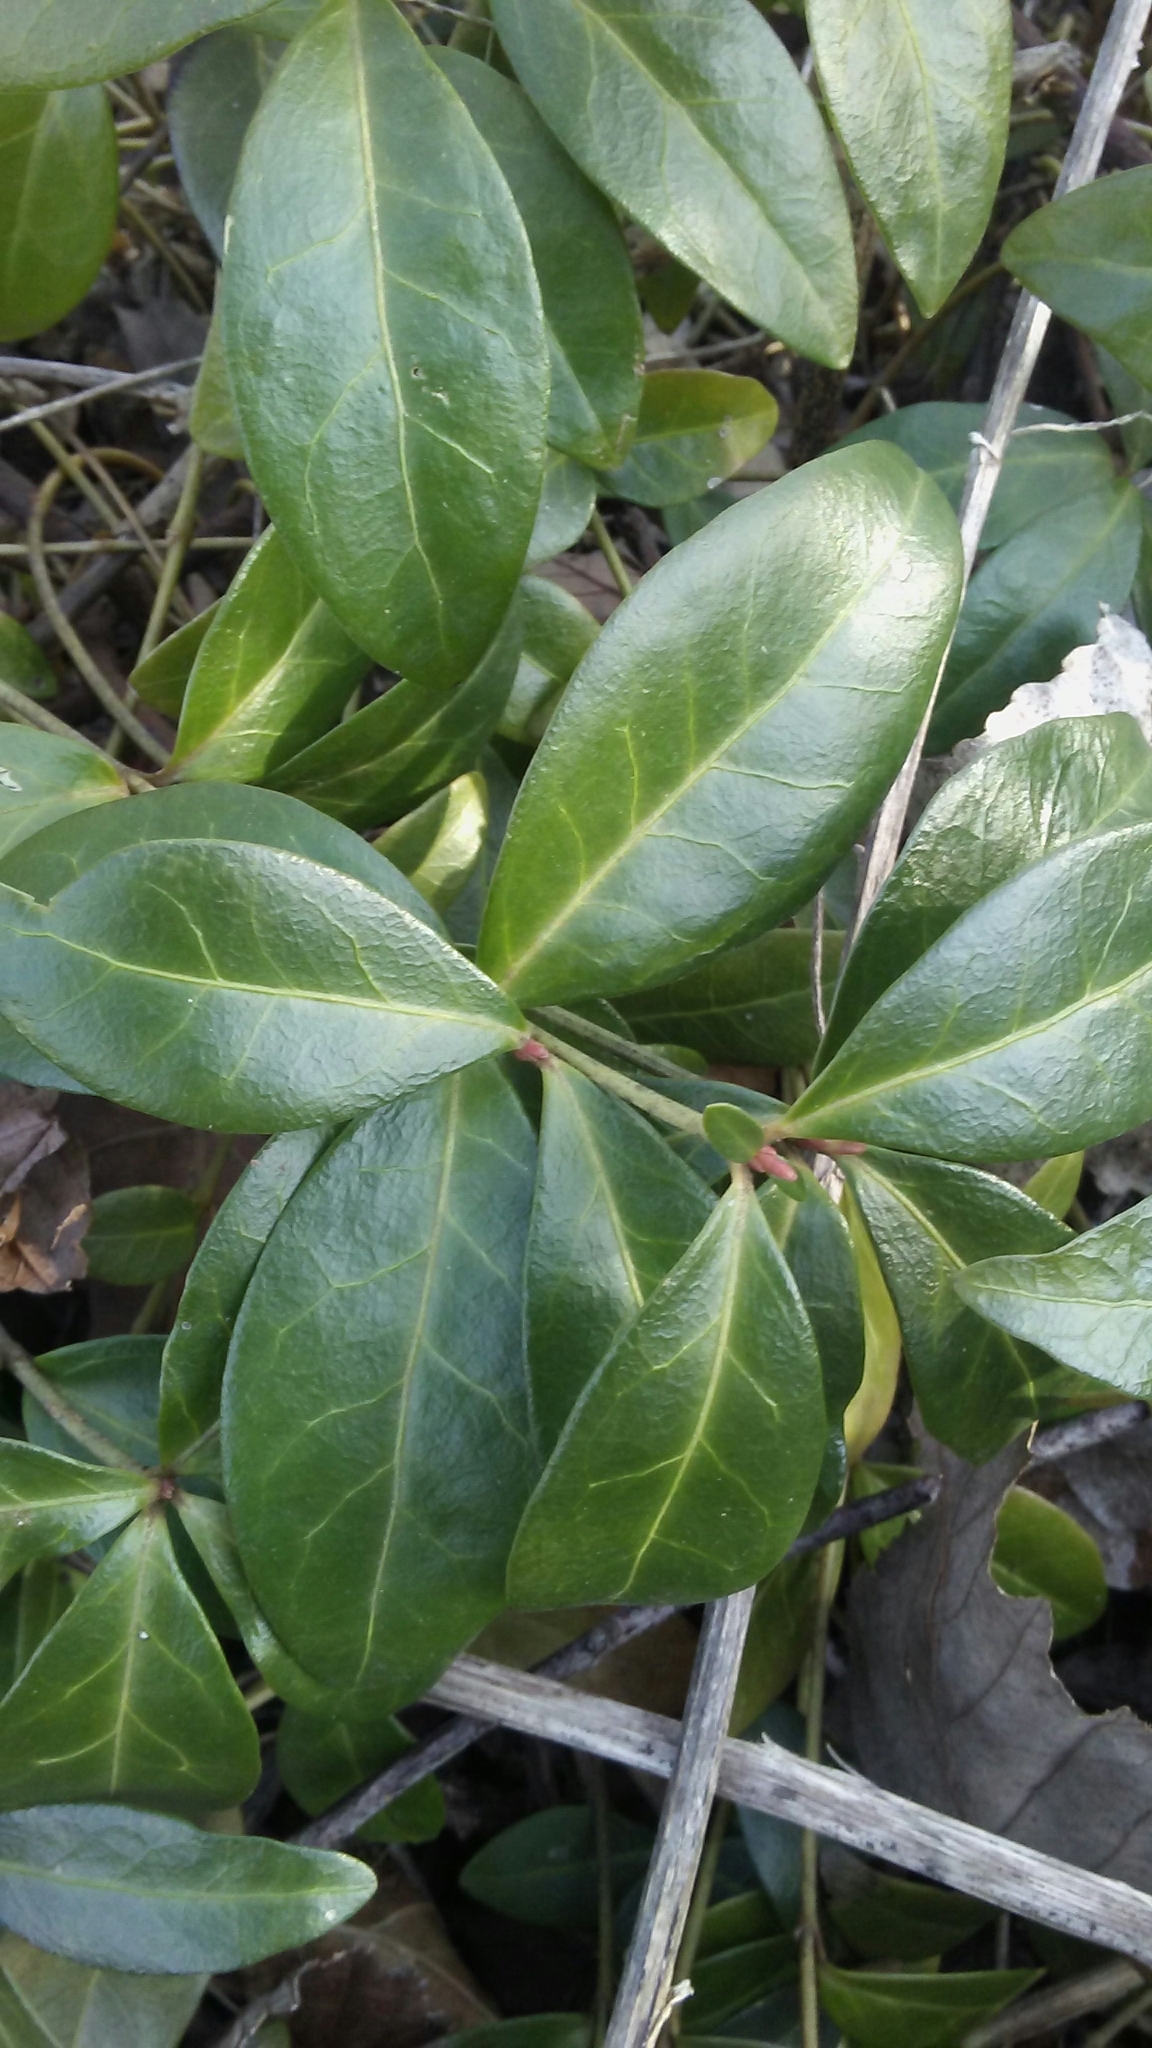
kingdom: Plantae
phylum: Tracheophyta
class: Magnoliopsida
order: Gentianales
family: Apocynaceae
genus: Vinca
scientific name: Vinca minor
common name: Lesser periwinkle
